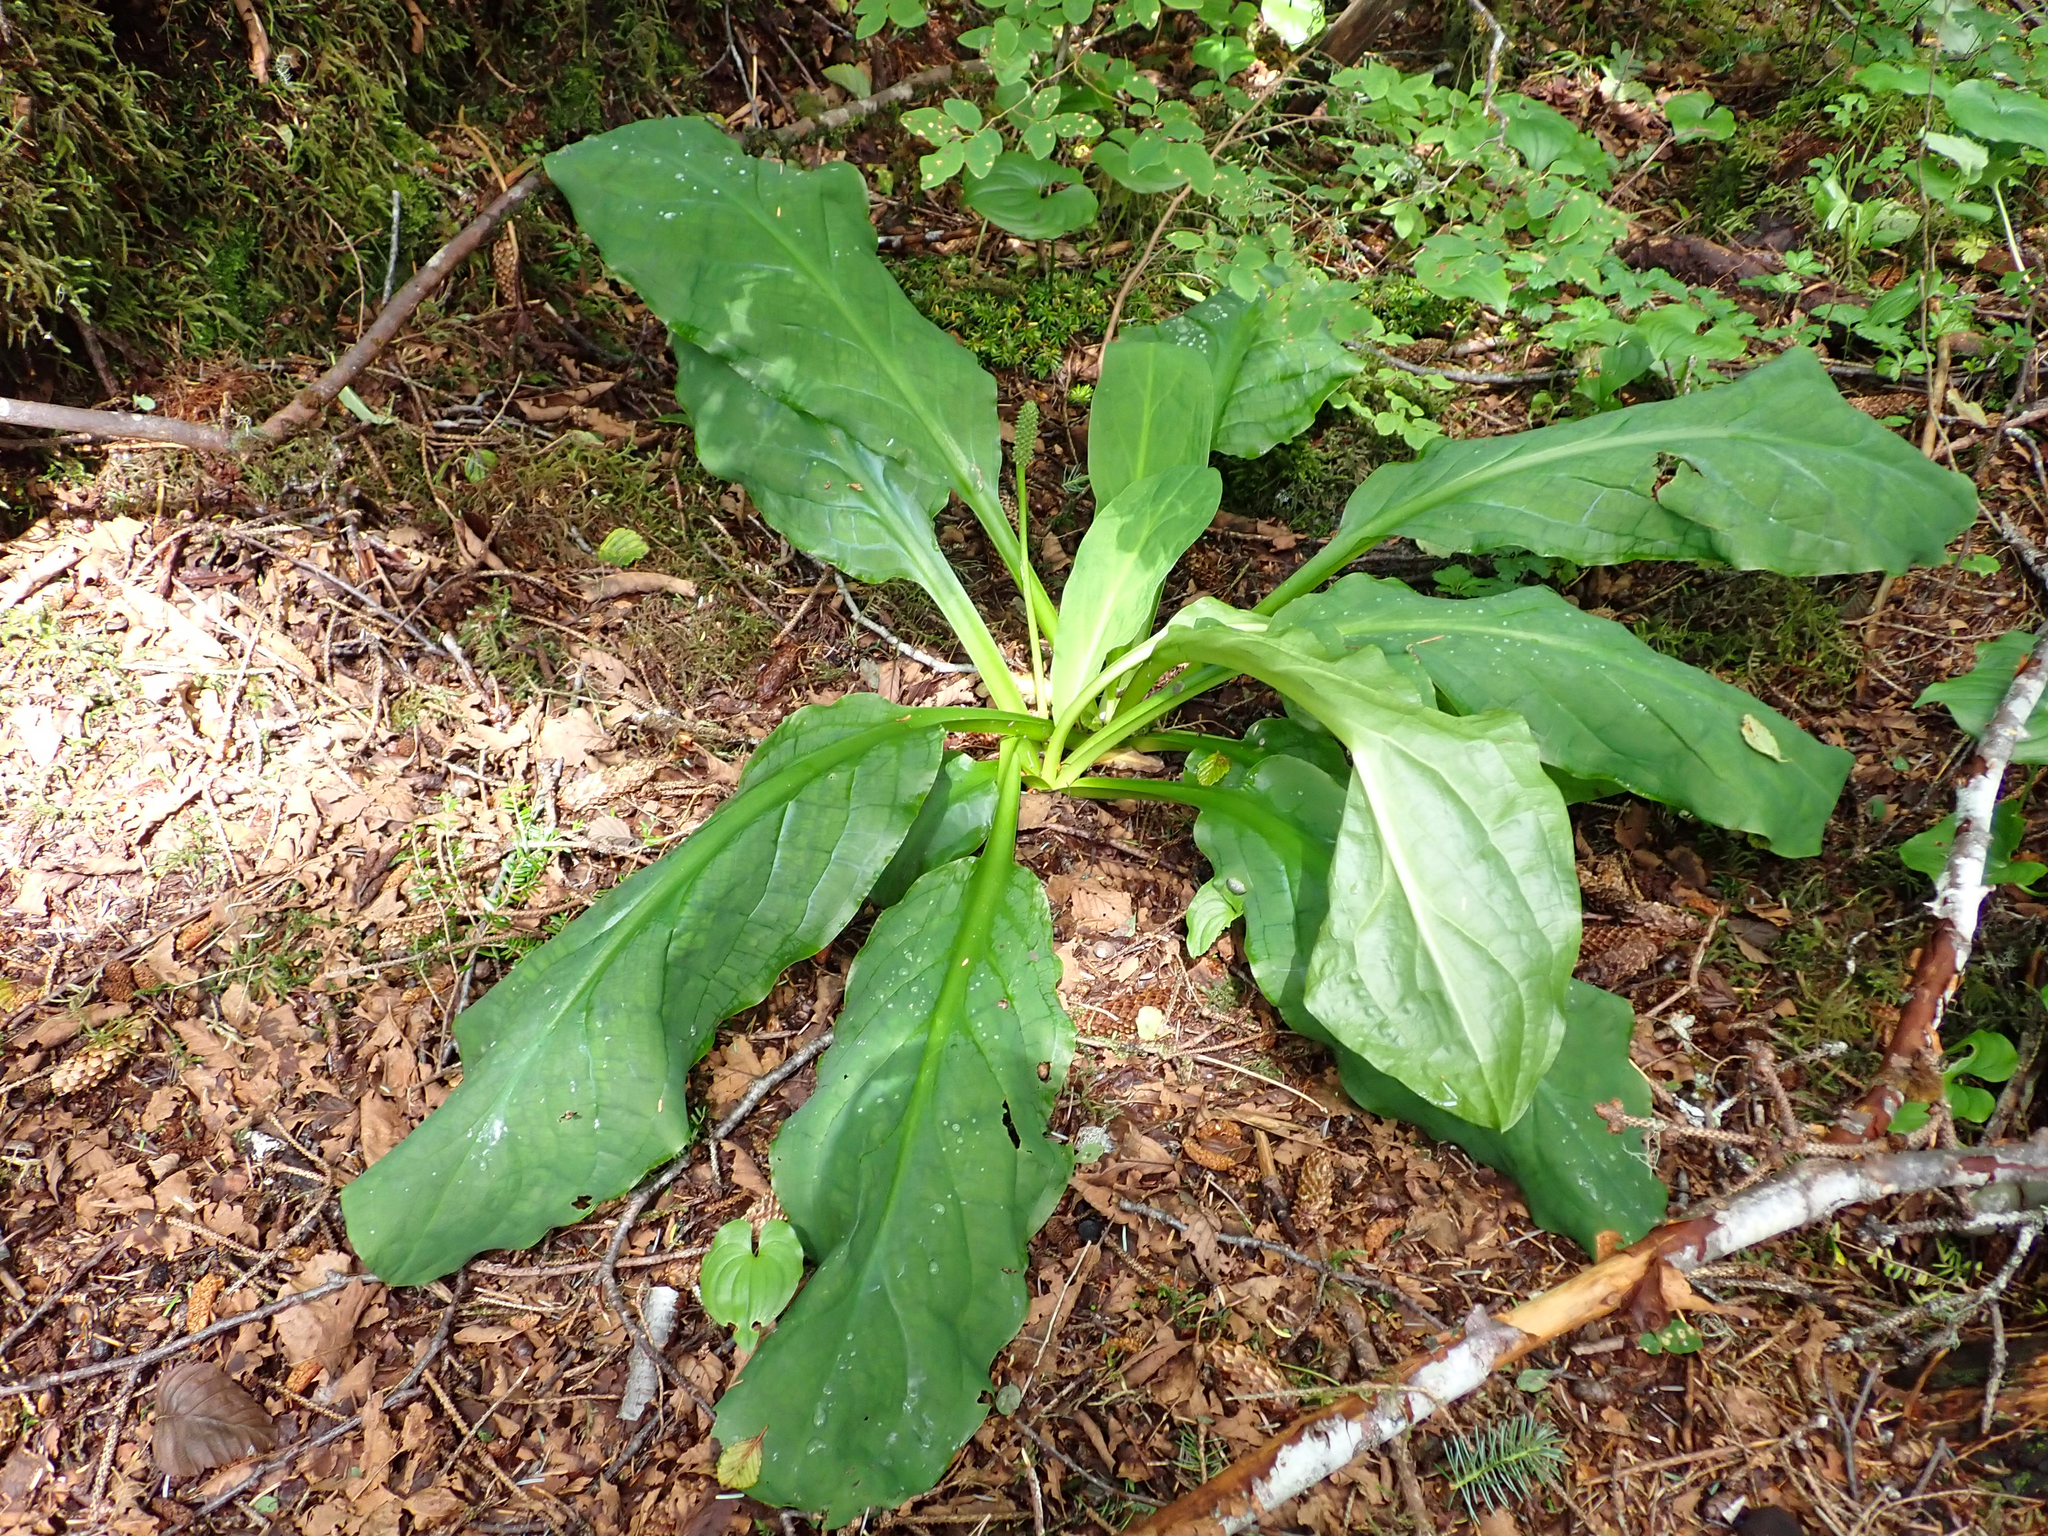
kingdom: Plantae
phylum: Tracheophyta
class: Liliopsida
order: Alismatales
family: Araceae
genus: Lysichiton
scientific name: Lysichiton americanus
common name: American skunk cabbage
